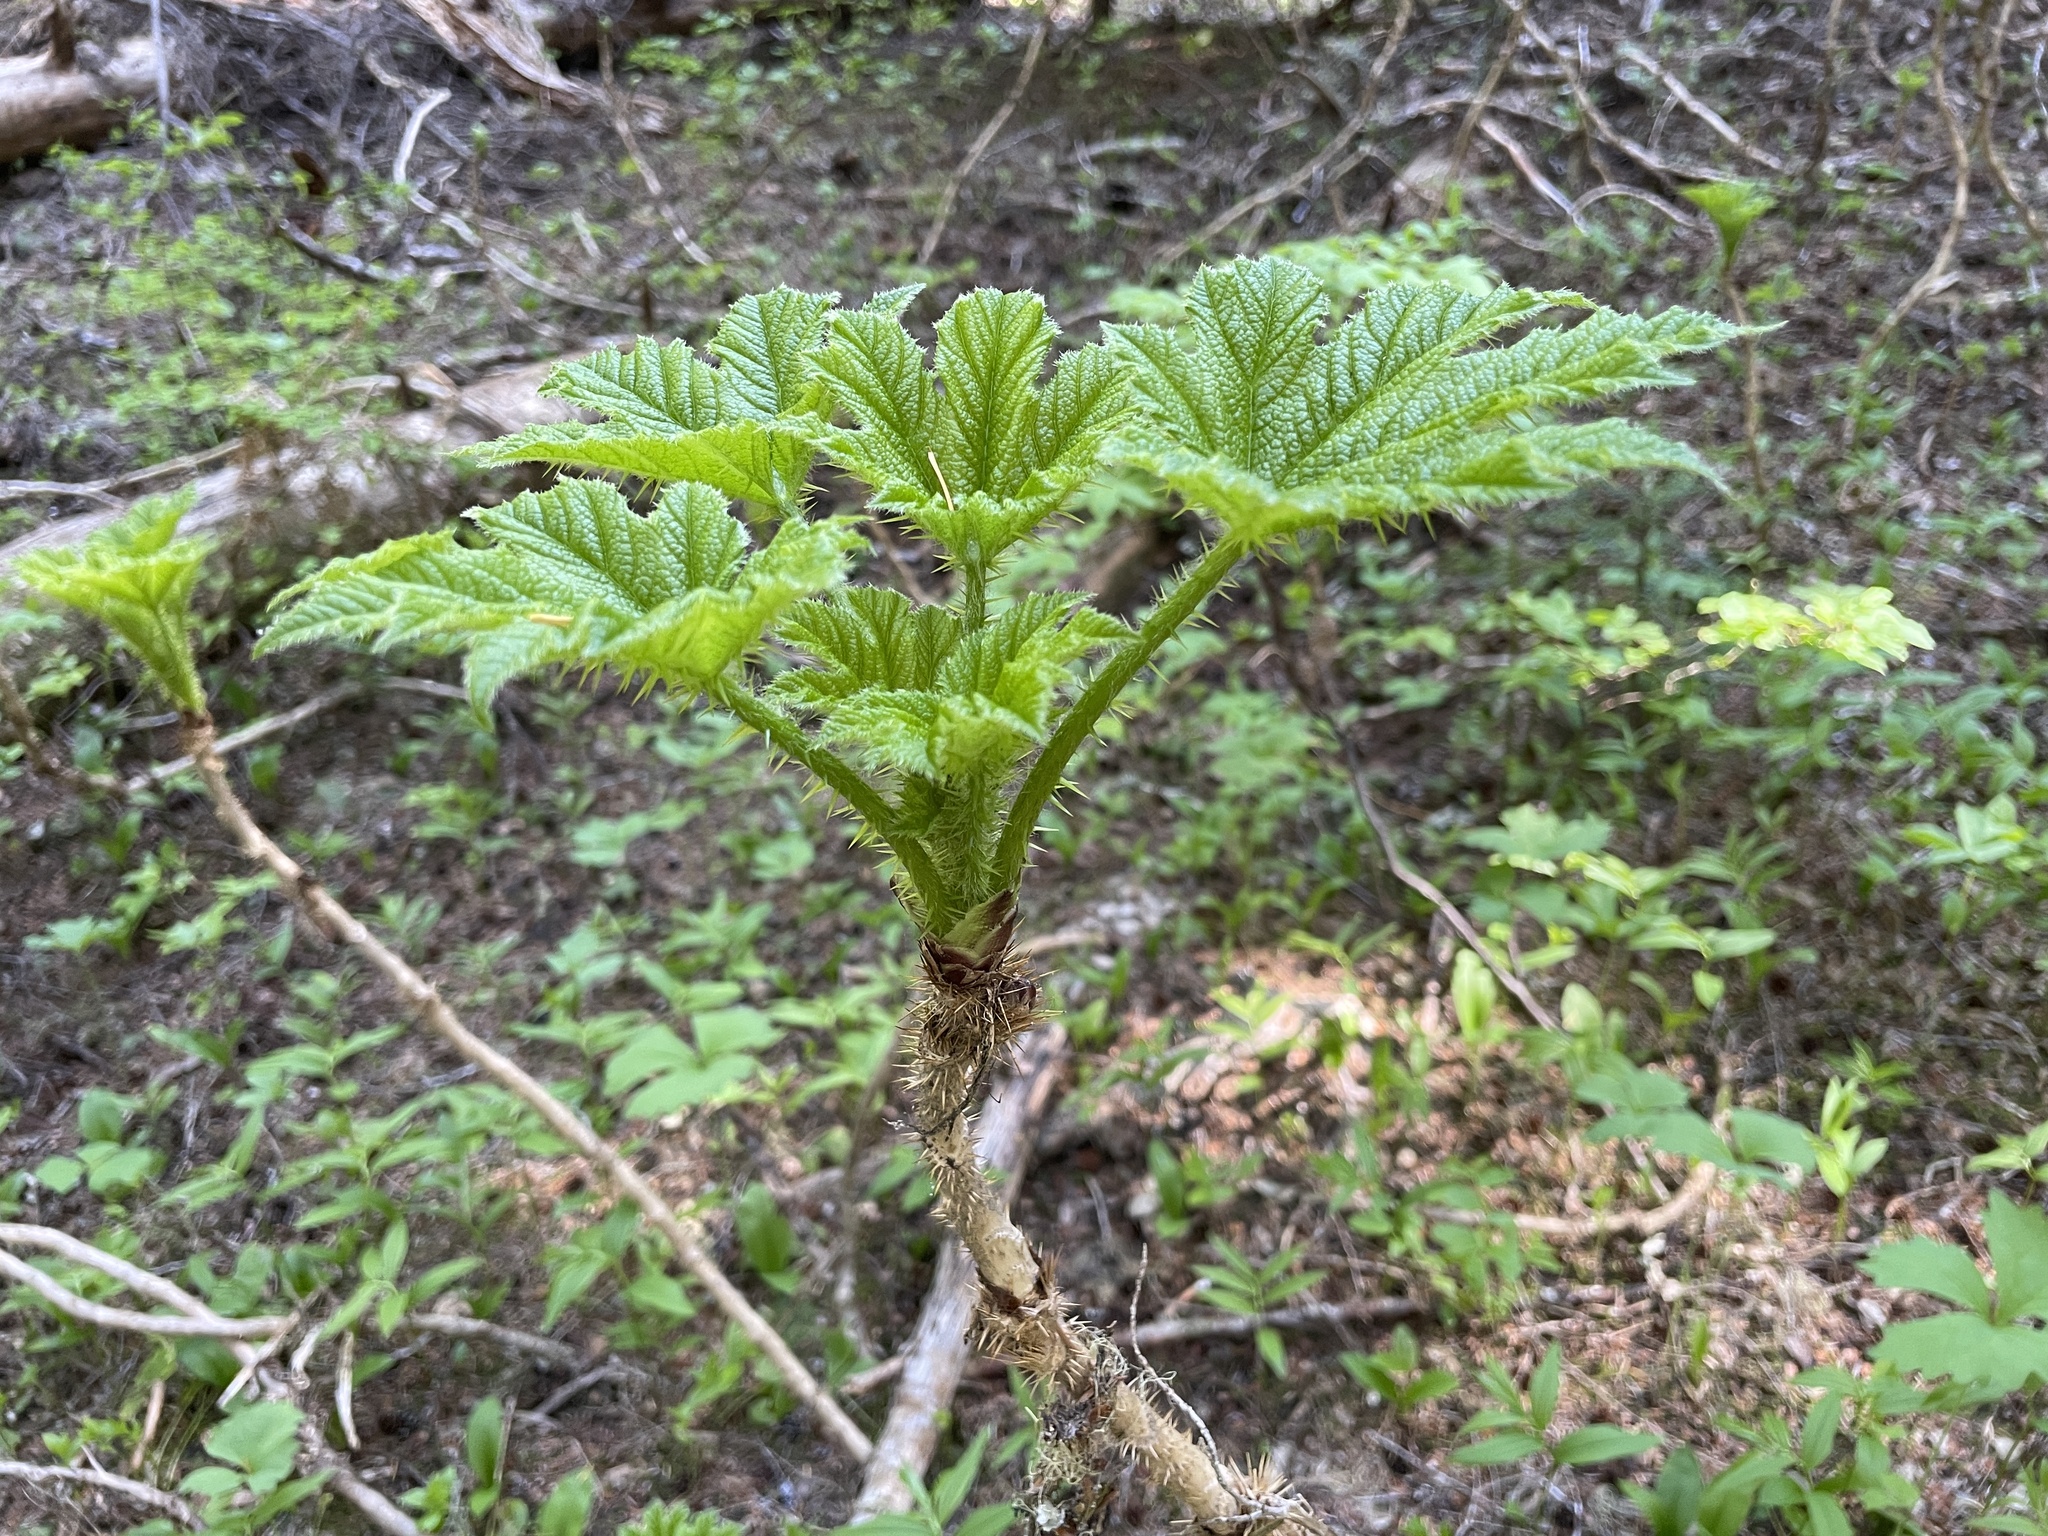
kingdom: Plantae
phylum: Tracheophyta
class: Magnoliopsida
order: Apiales
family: Araliaceae
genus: Oplopanax
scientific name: Oplopanax horridus
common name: Devil's walking-stick
